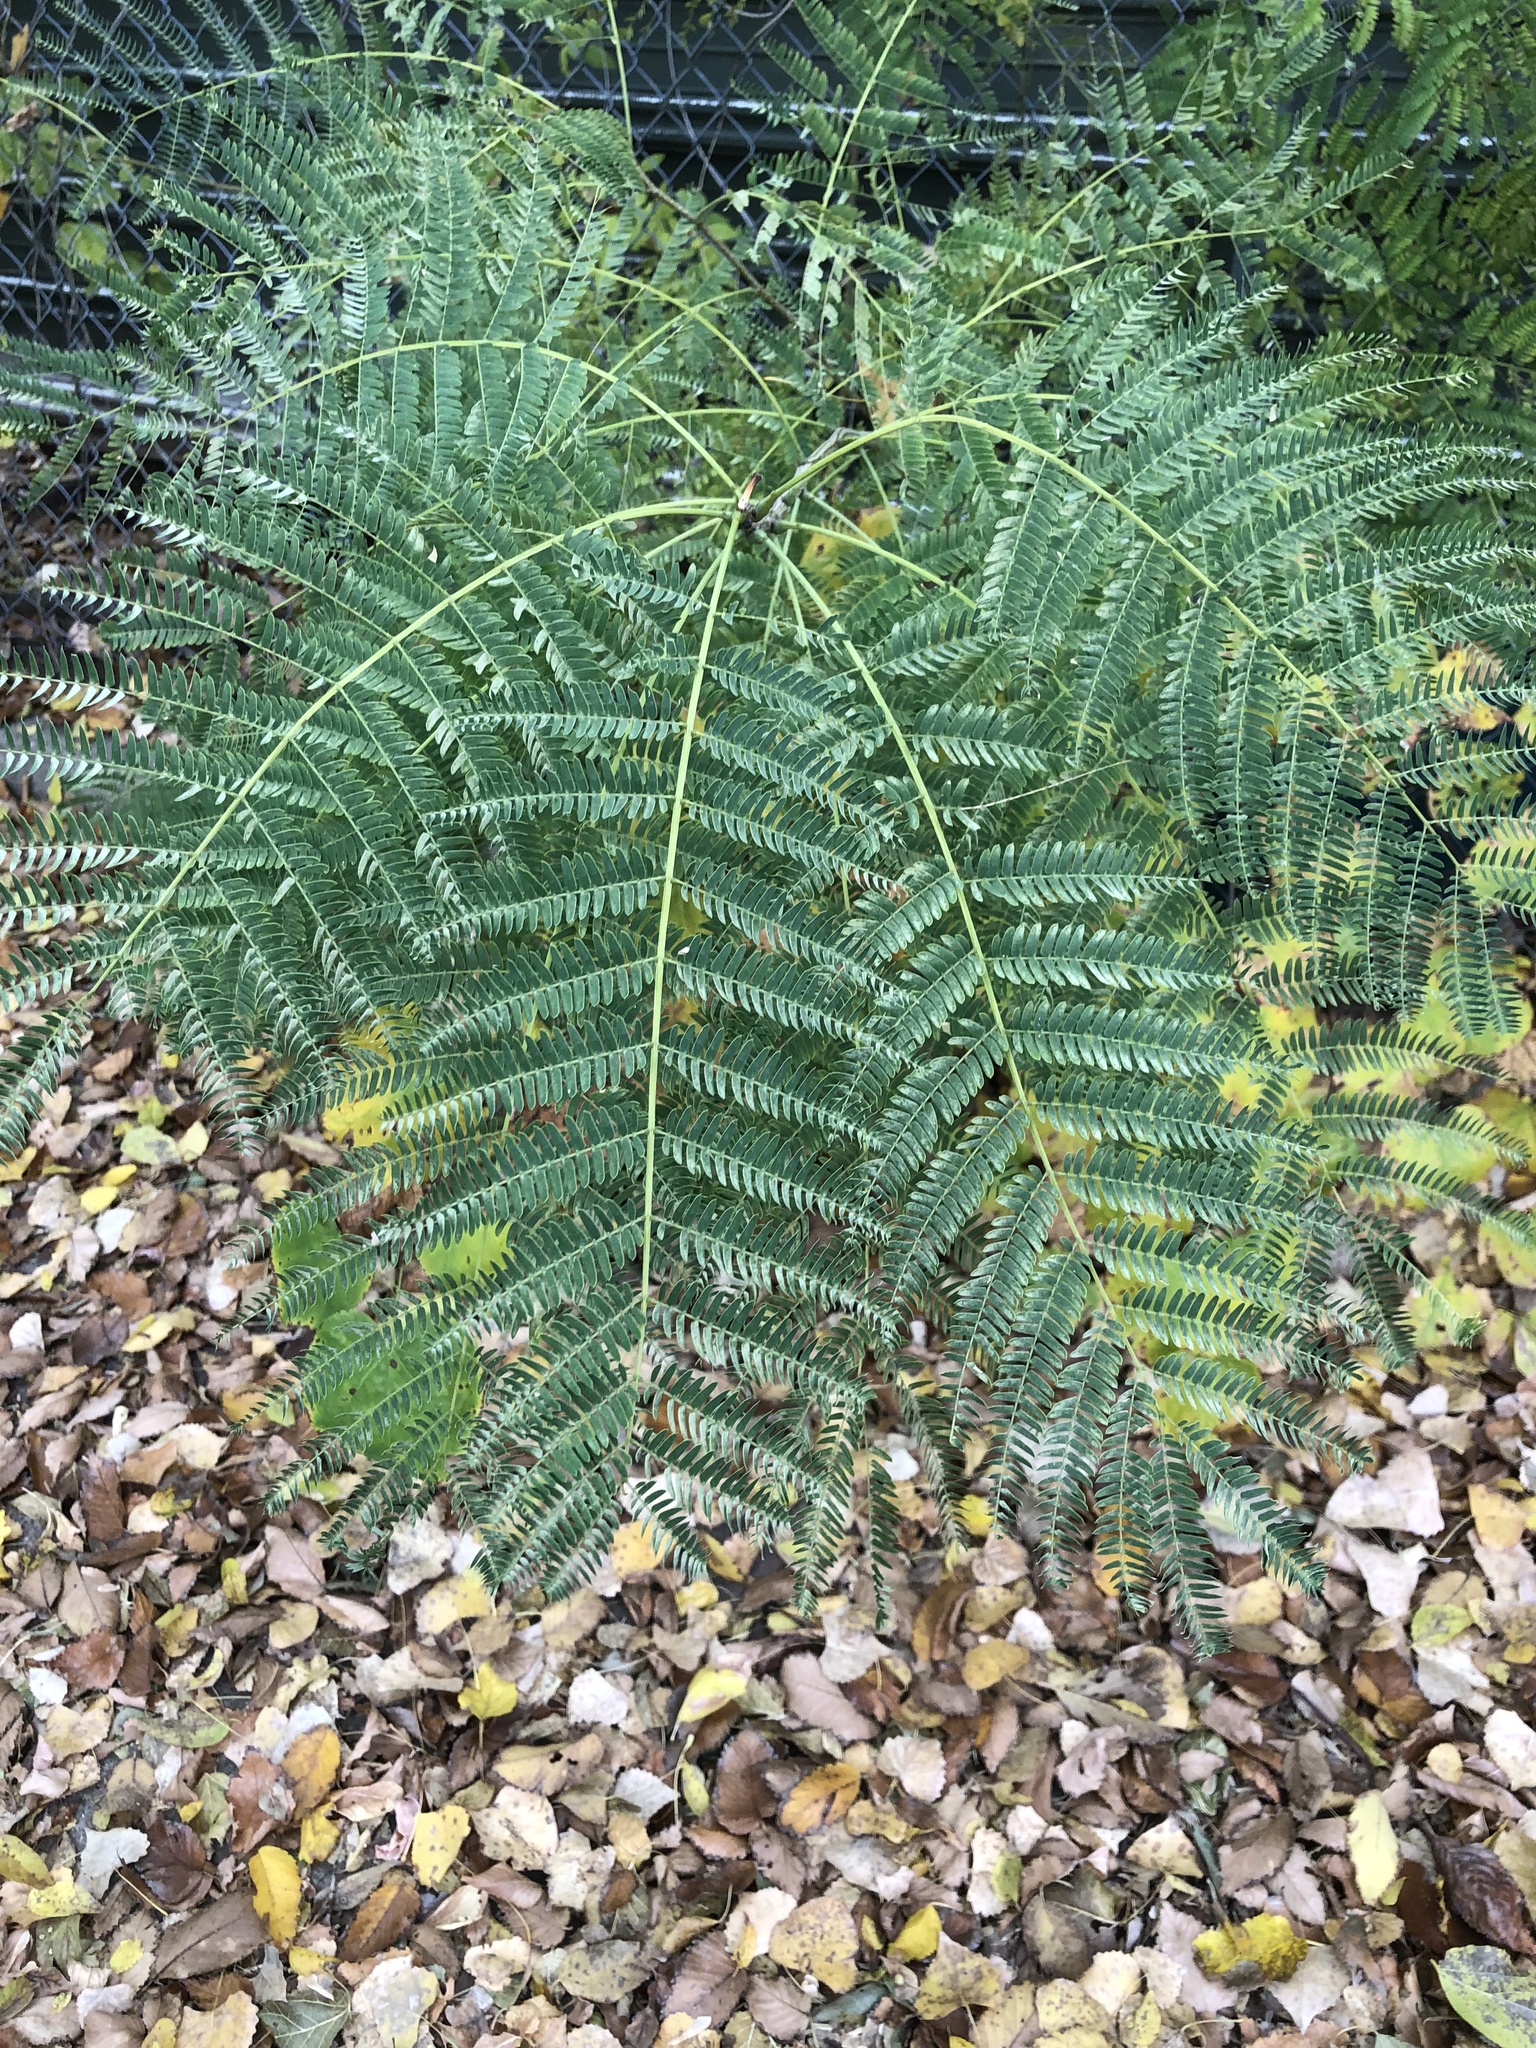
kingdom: Plantae
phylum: Tracheophyta
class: Magnoliopsida
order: Fabales
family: Fabaceae
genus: Albizia
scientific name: Albizia julibrissin
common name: Silktree
